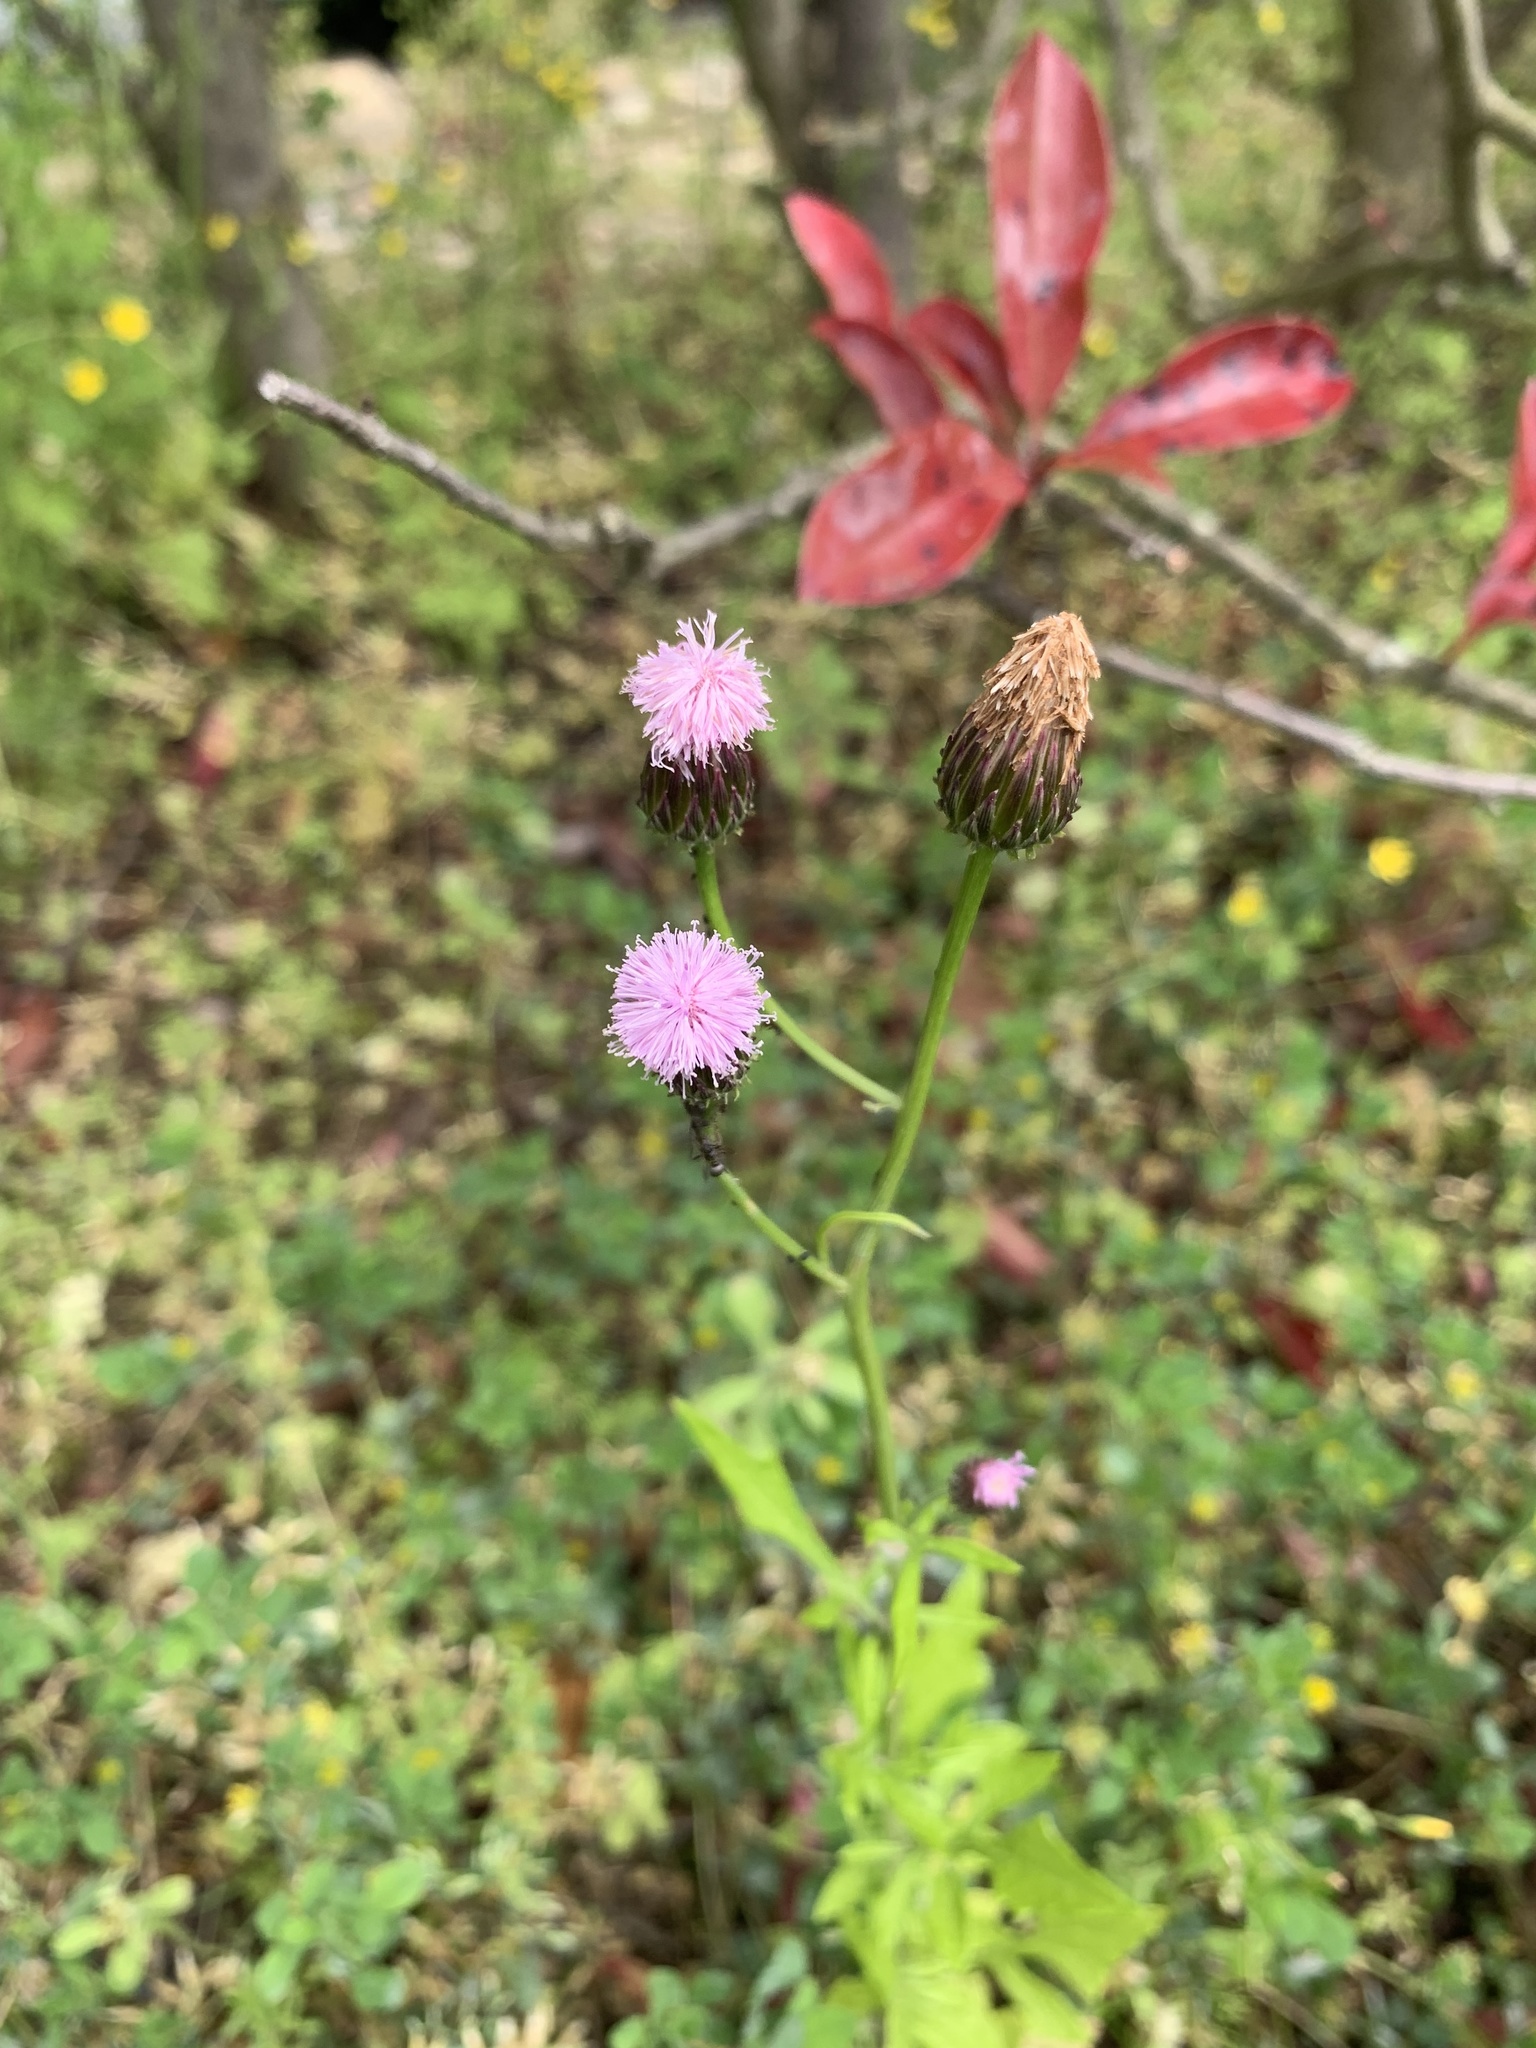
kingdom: Plantae
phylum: Tracheophyta
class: Magnoliopsida
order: Asterales
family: Asteraceae
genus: Saussurea
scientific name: Saussurea lyrata
